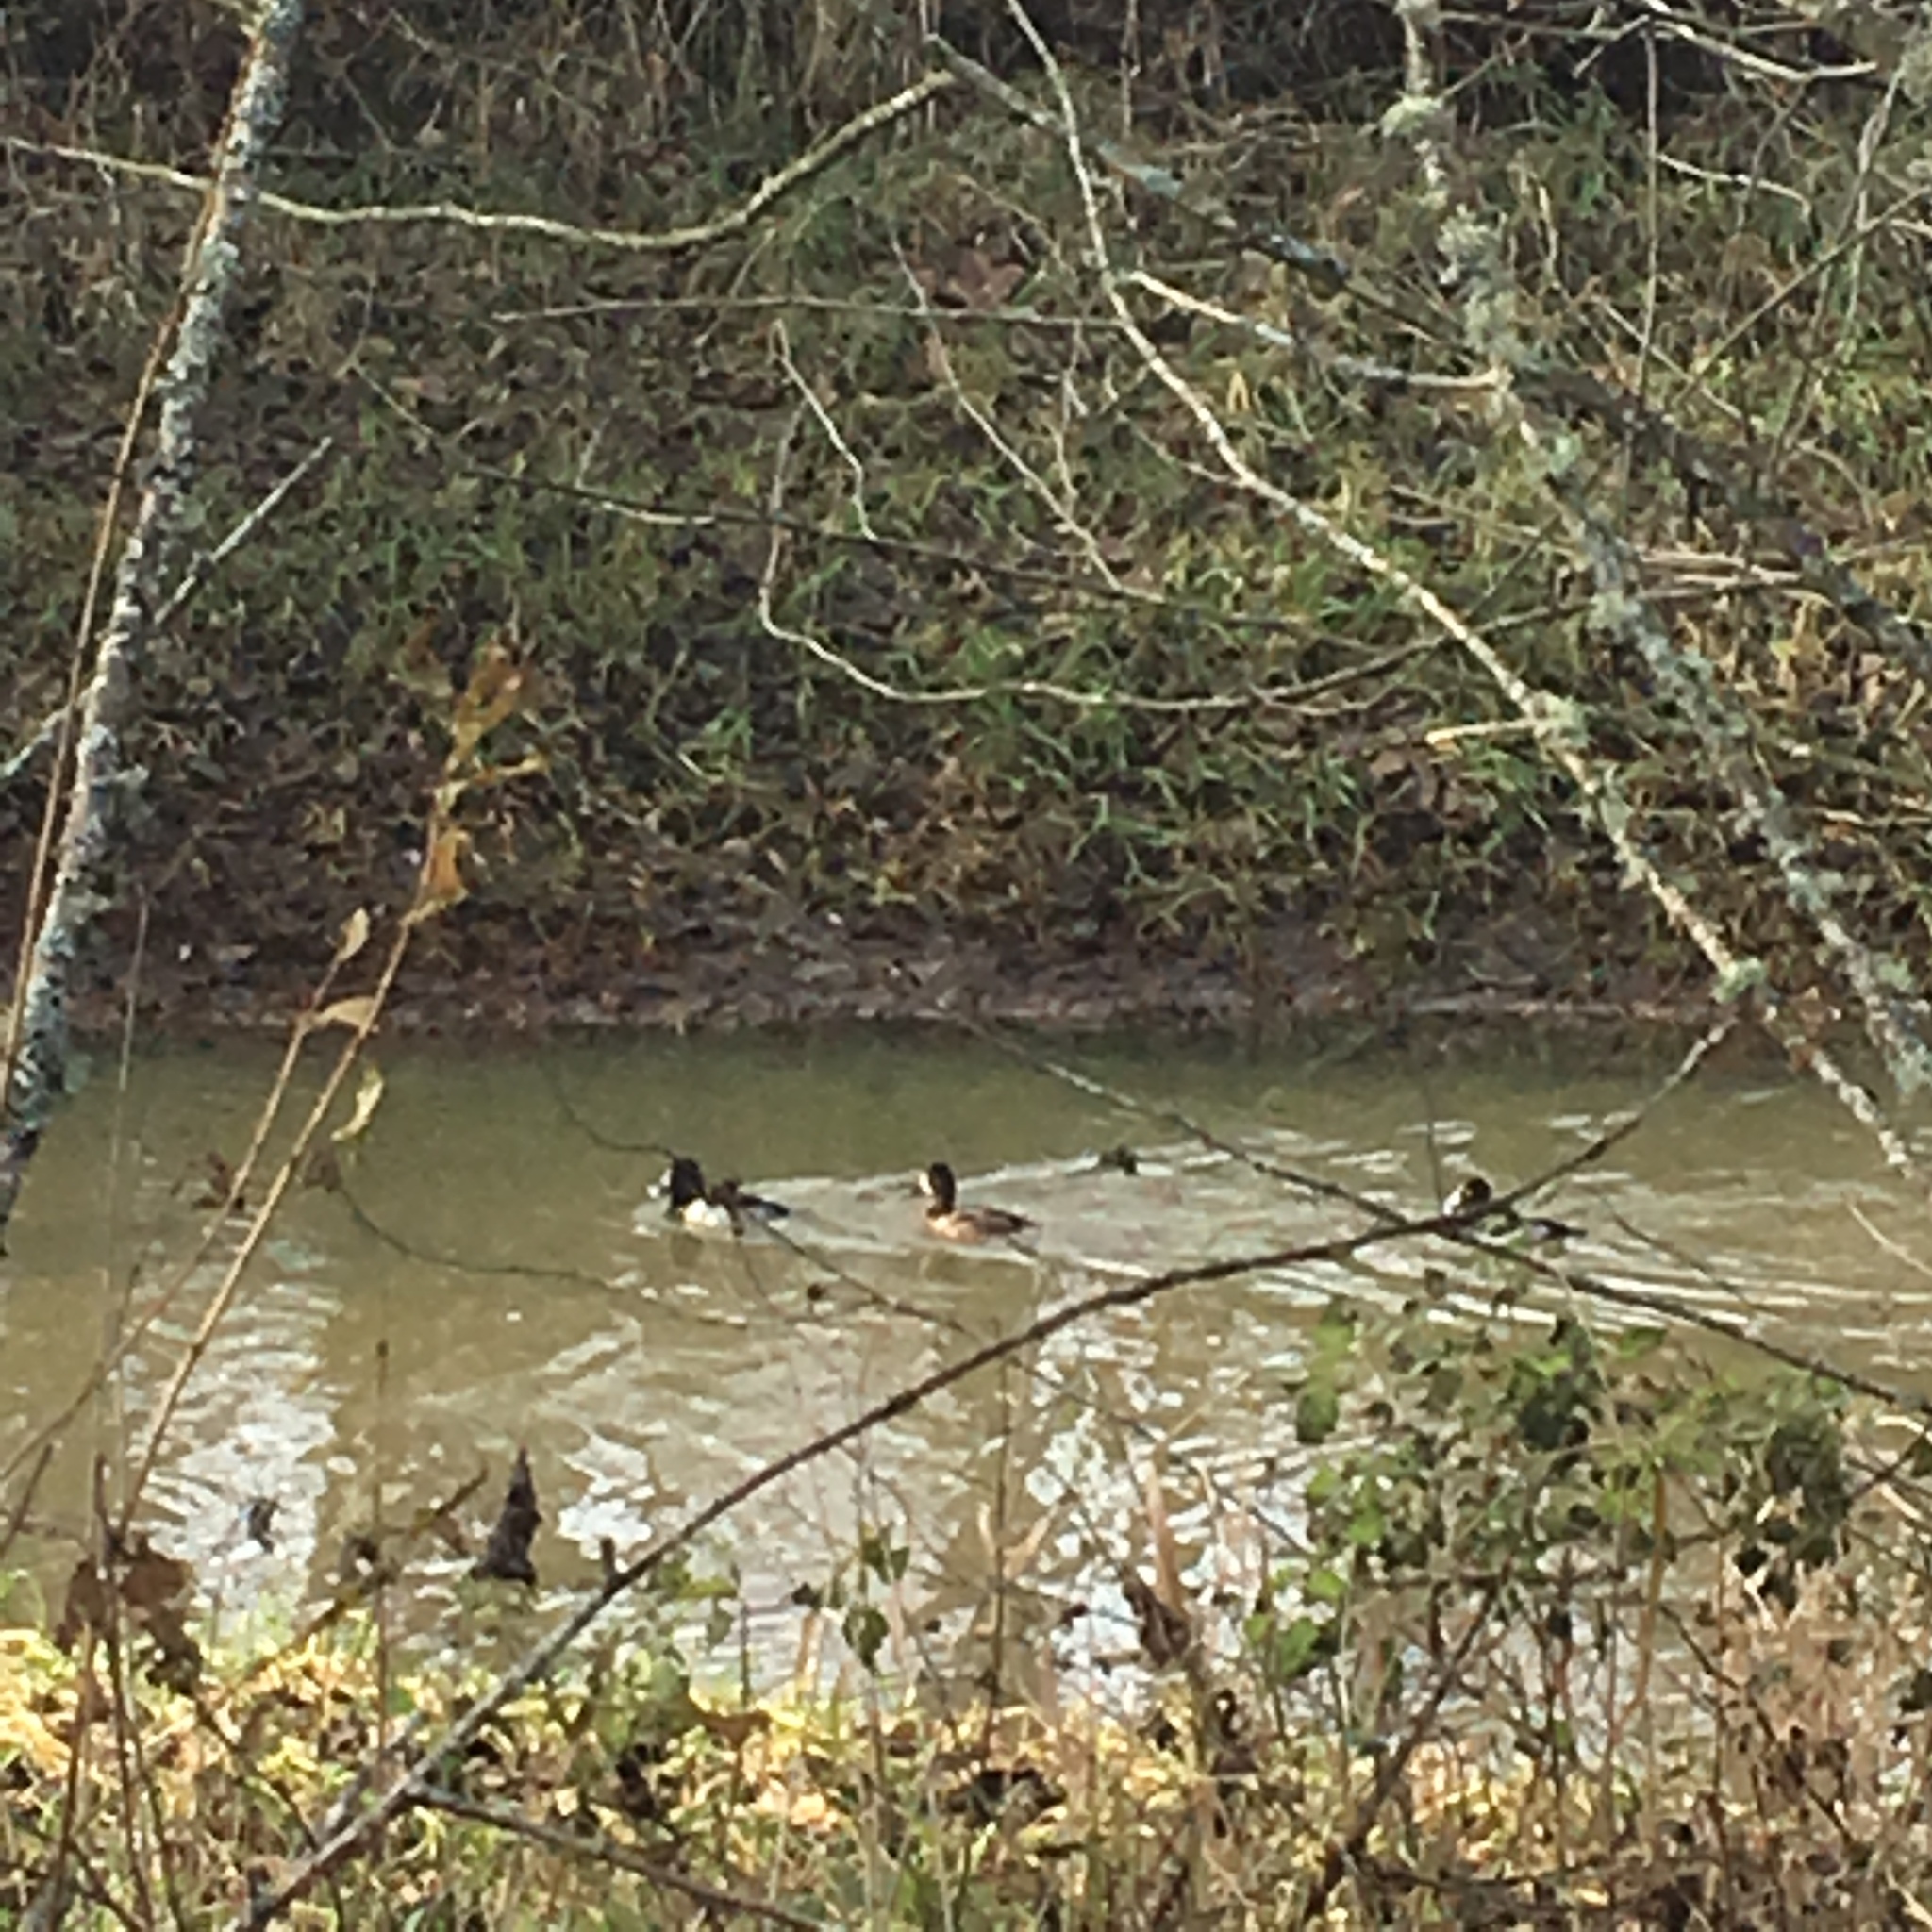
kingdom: Animalia
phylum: Chordata
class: Aves
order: Anseriformes
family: Anatidae
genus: Aythya
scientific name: Aythya collaris
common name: Ring-necked duck
